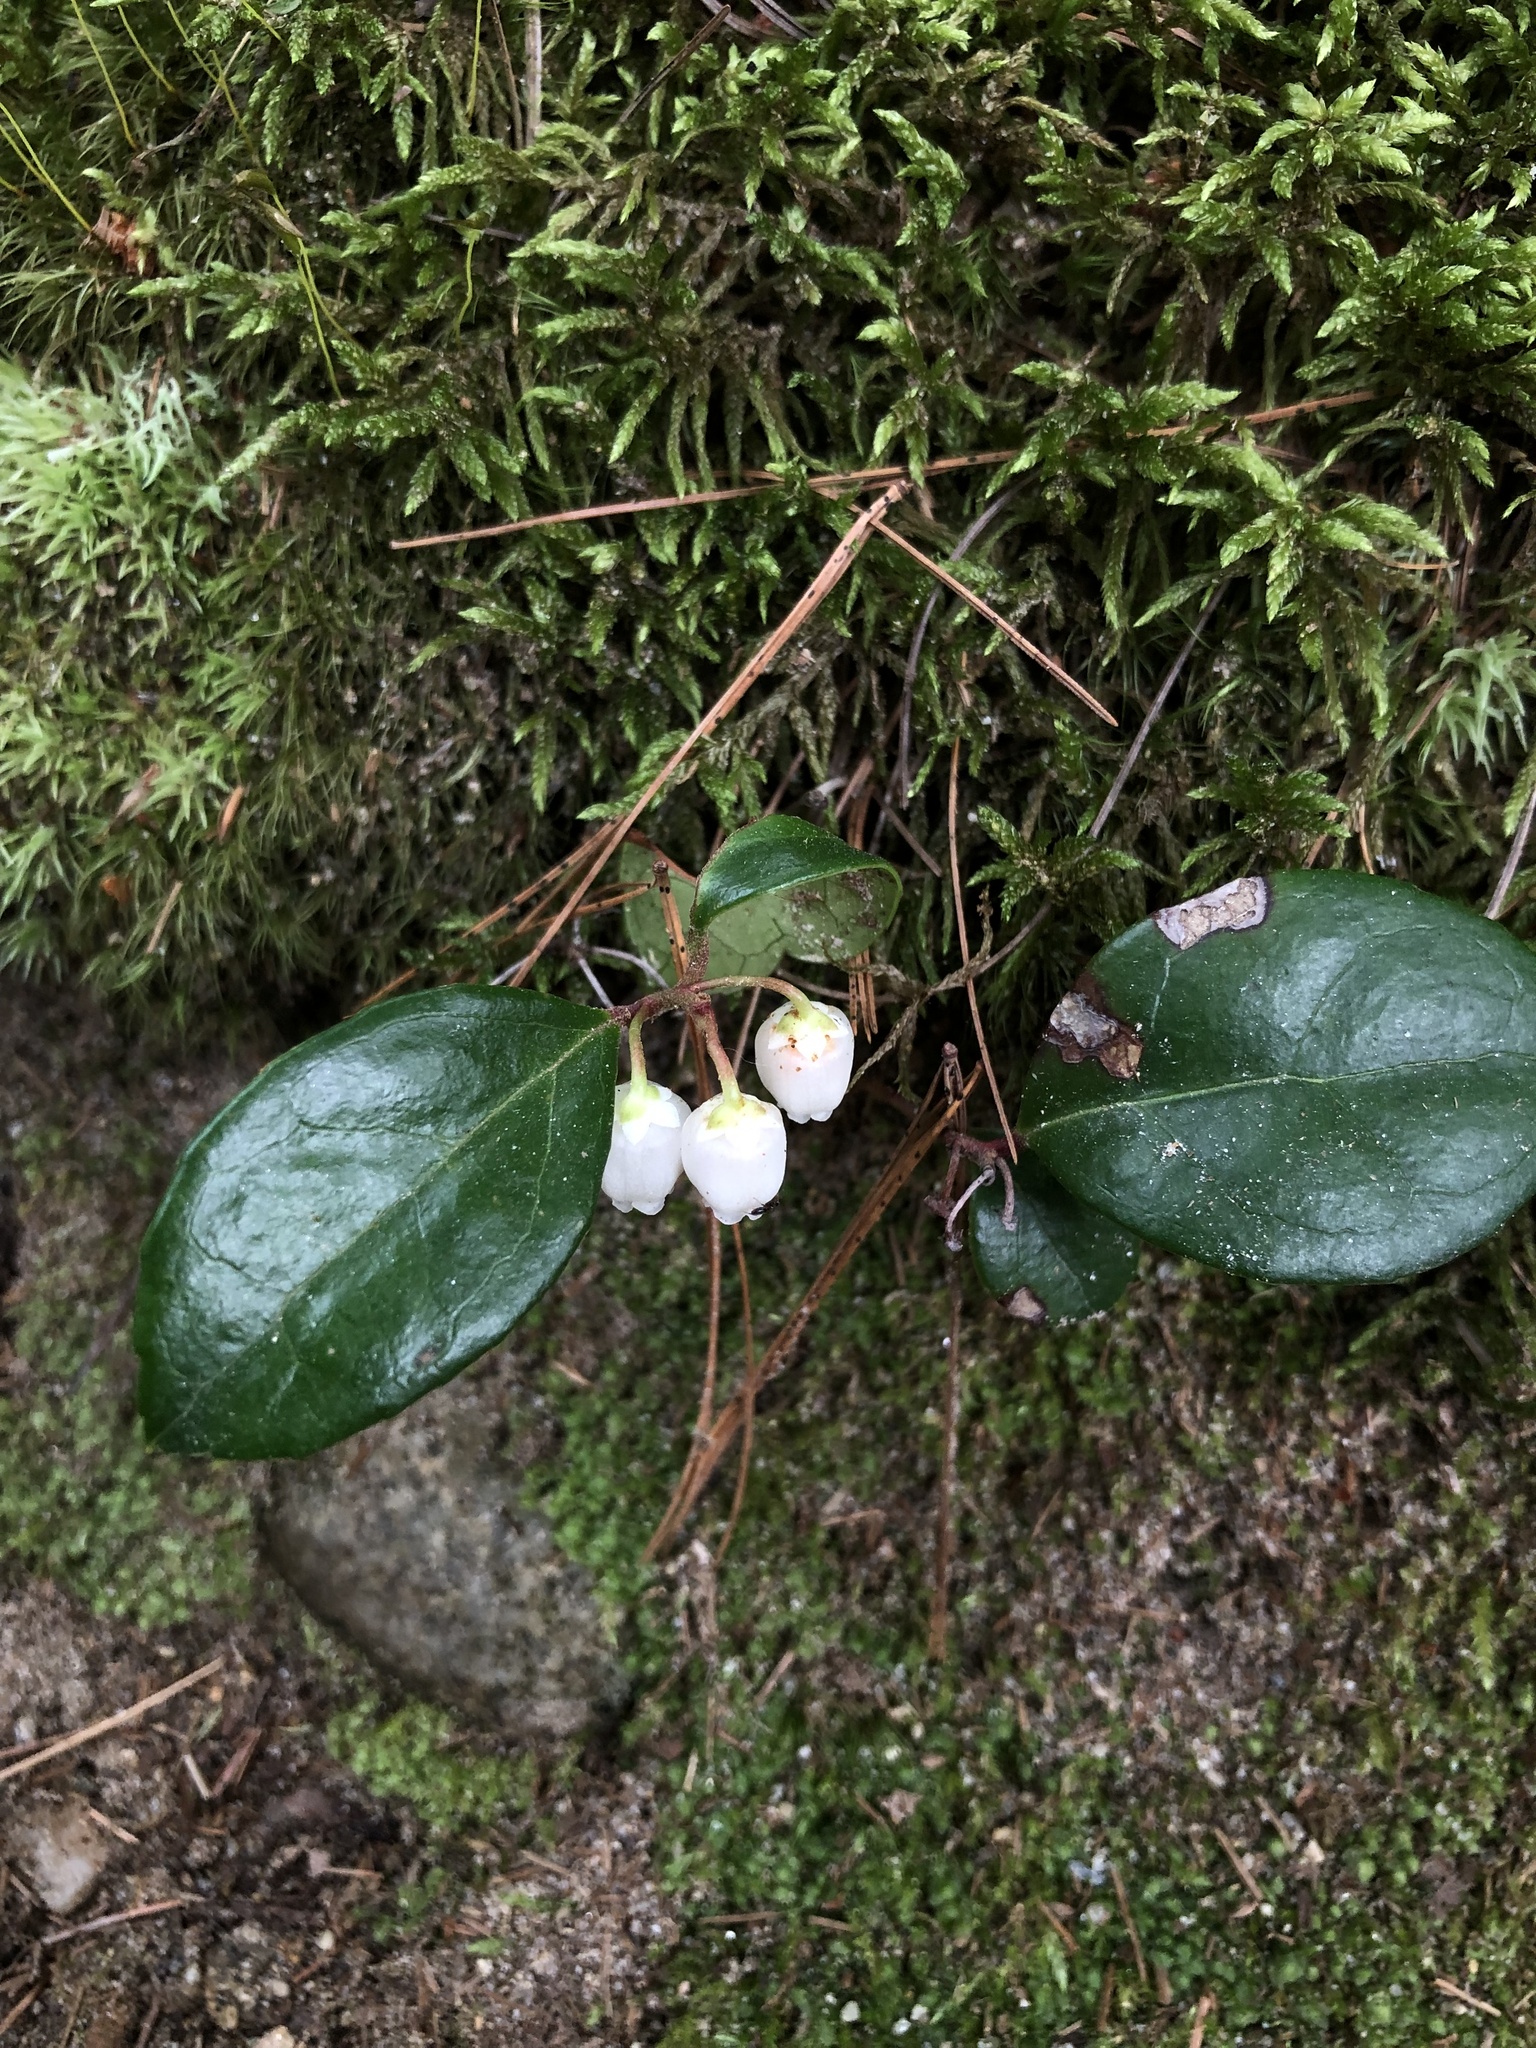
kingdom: Plantae
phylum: Tracheophyta
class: Magnoliopsida
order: Ericales
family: Ericaceae
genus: Gaultheria
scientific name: Gaultheria procumbens
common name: Checkerberry
